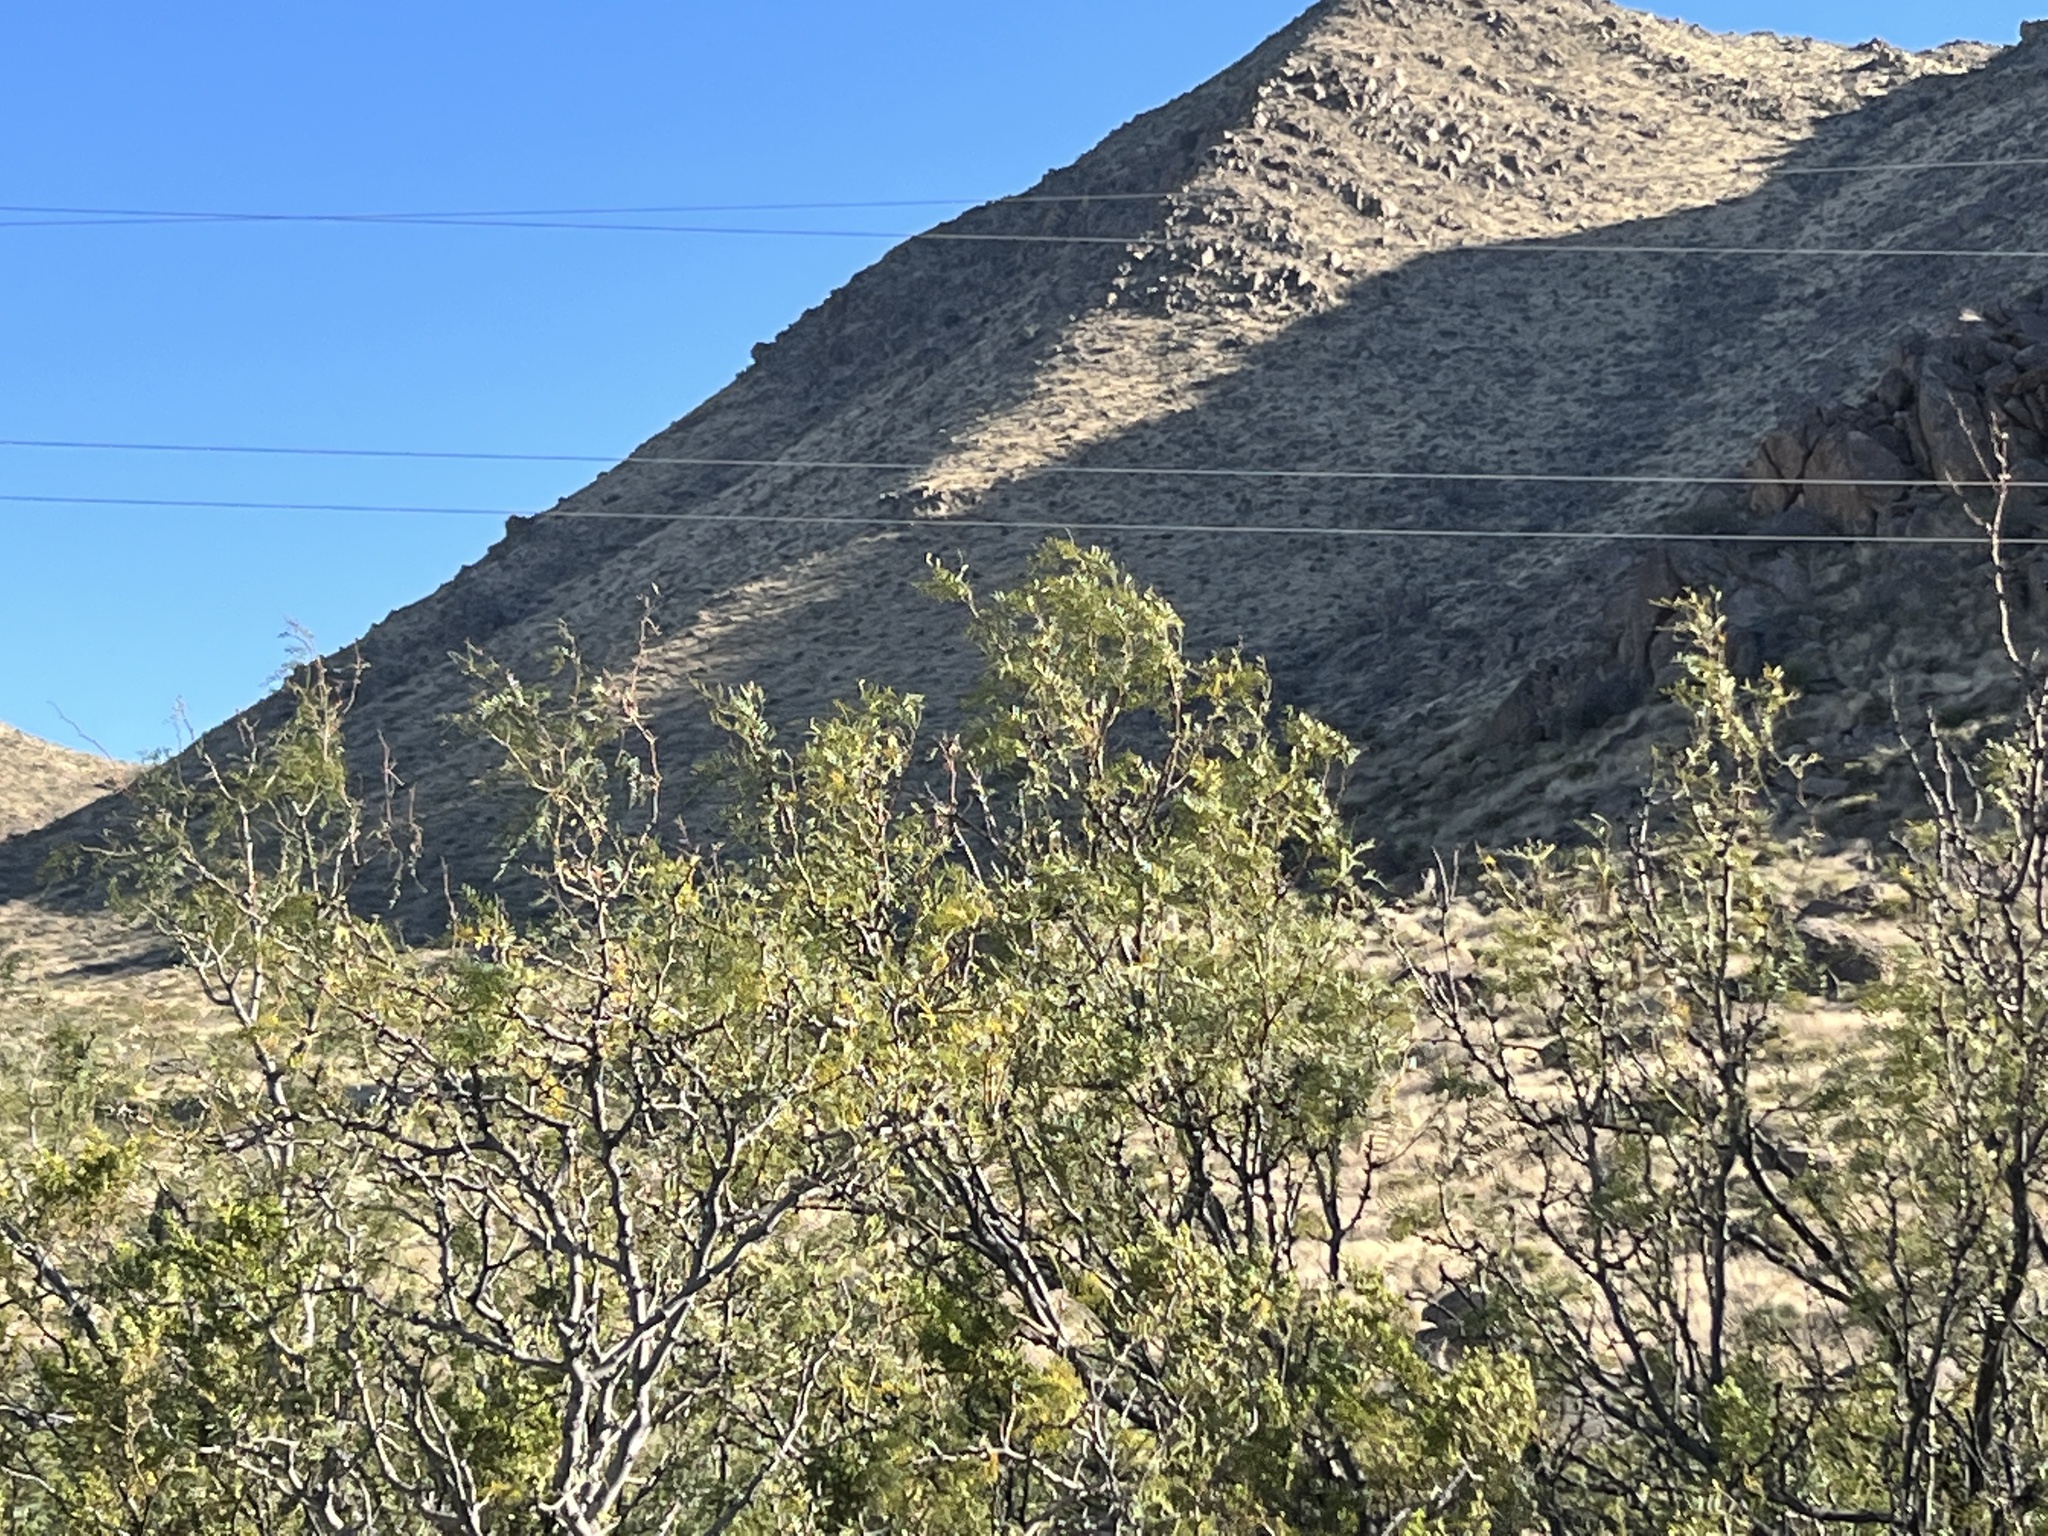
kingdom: Plantae
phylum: Tracheophyta
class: Magnoliopsida
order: Fabales
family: Fabaceae
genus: Prosopis
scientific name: Prosopis glandulosa
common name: Honey mesquite
